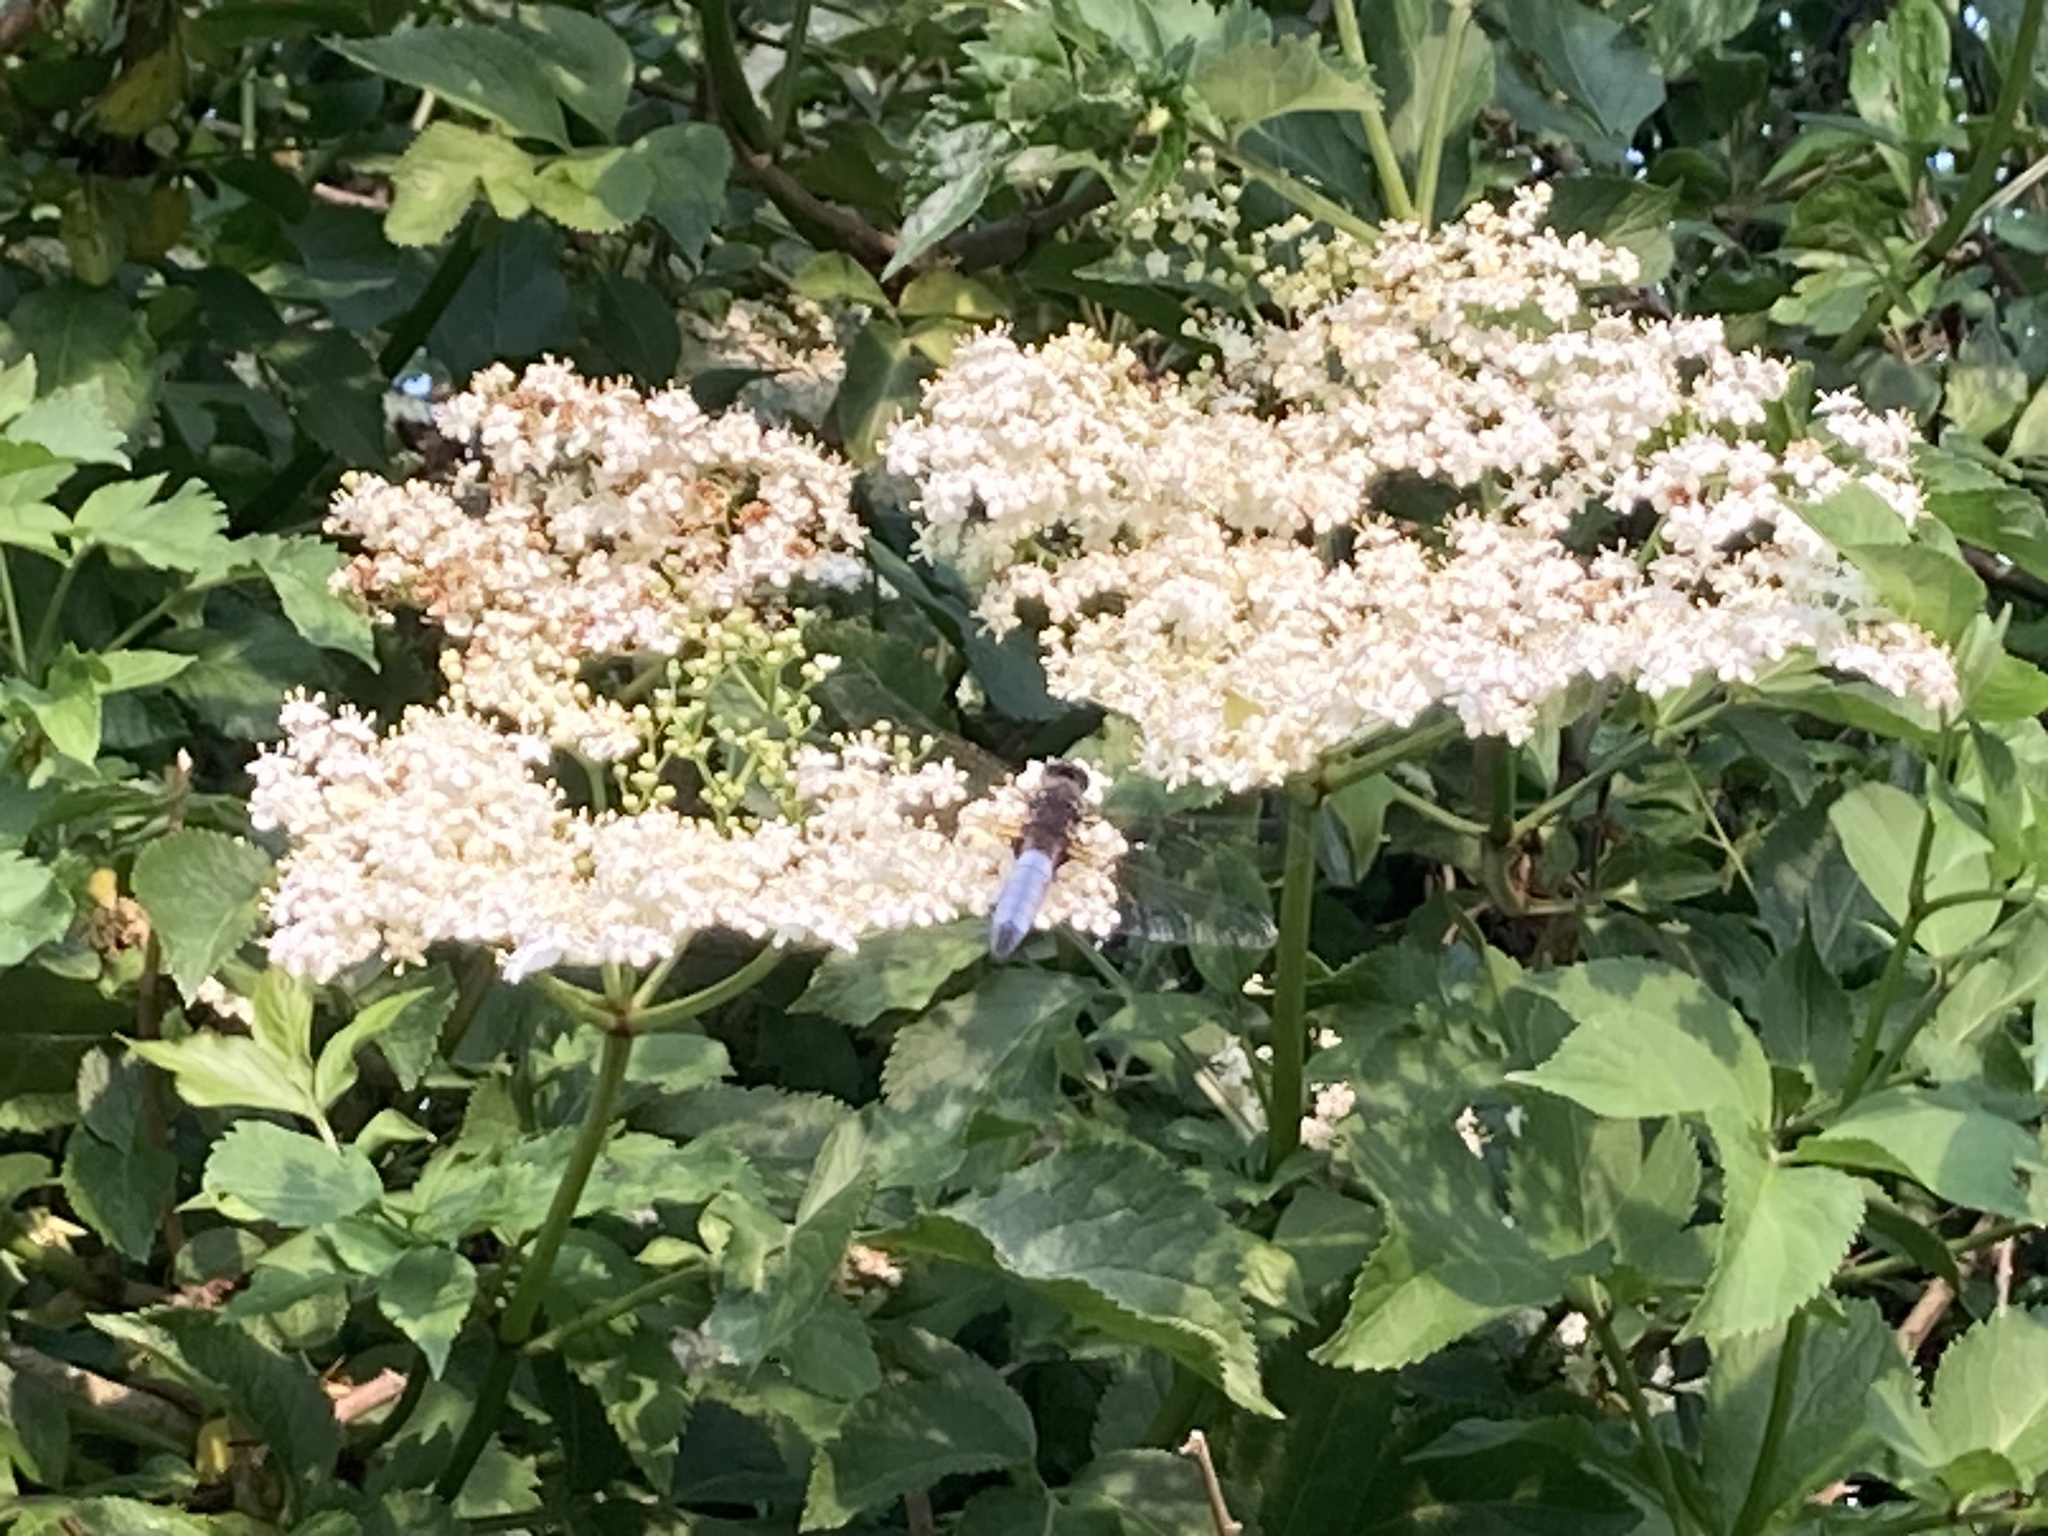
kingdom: Animalia
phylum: Arthropoda
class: Insecta
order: Odonata
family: Libellulidae
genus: Libellula
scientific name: Libellula fulva
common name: Blue chaser
